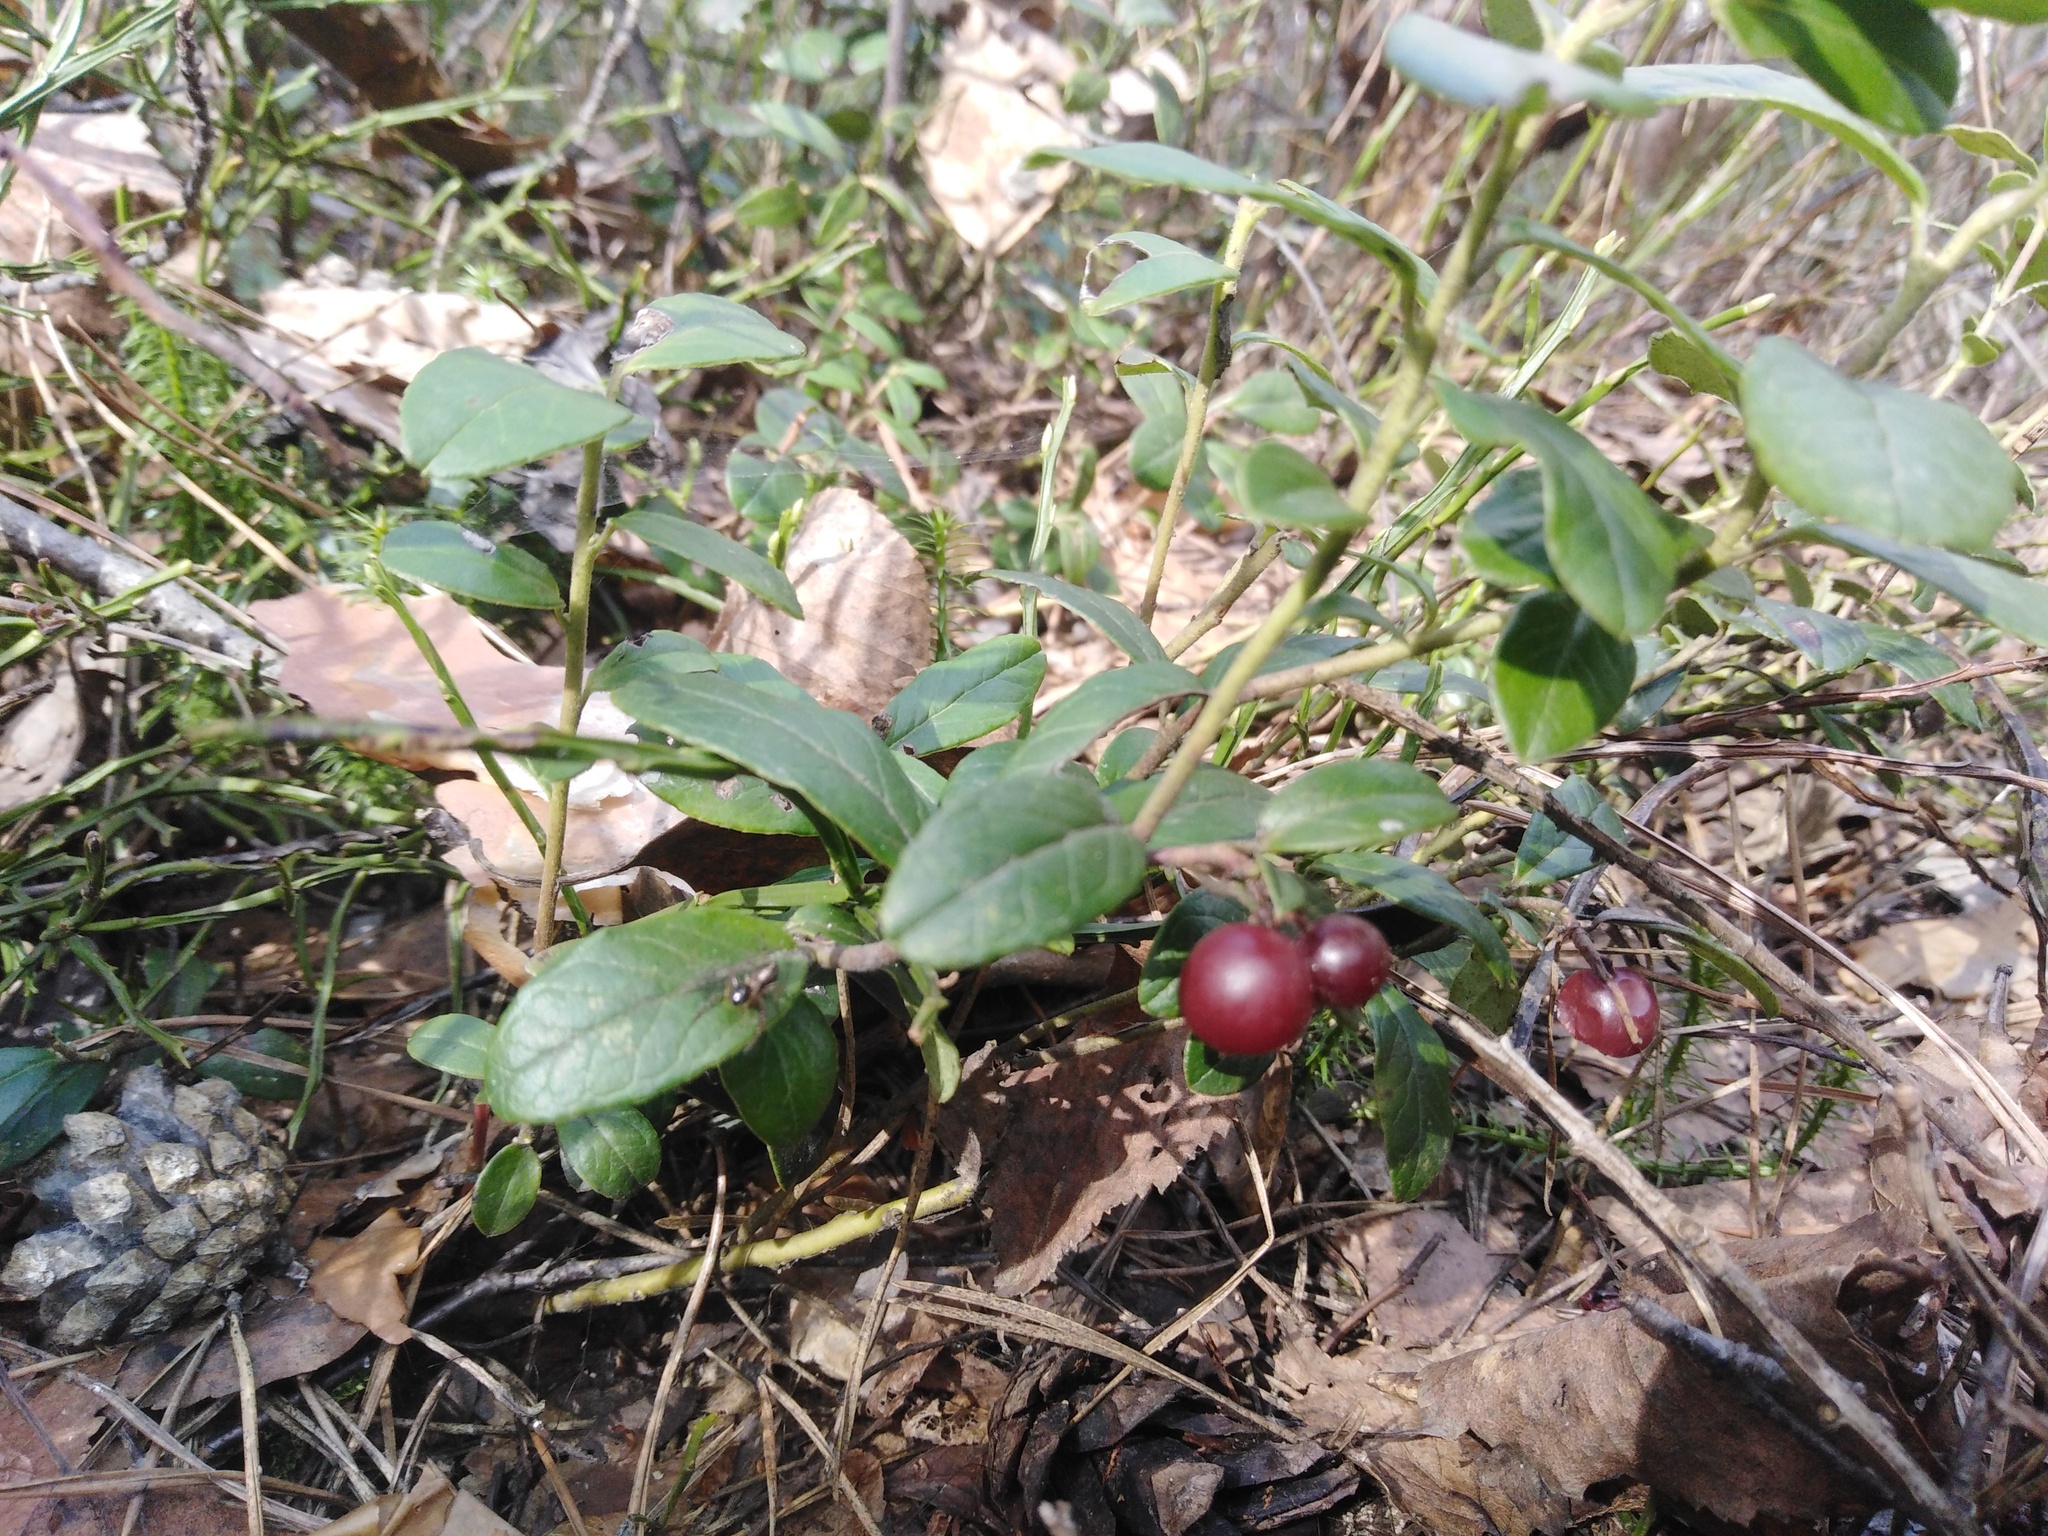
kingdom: Plantae
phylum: Tracheophyta
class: Magnoliopsida
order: Ericales
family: Ericaceae
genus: Vaccinium
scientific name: Vaccinium vitis-idaea
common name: Cowberry
